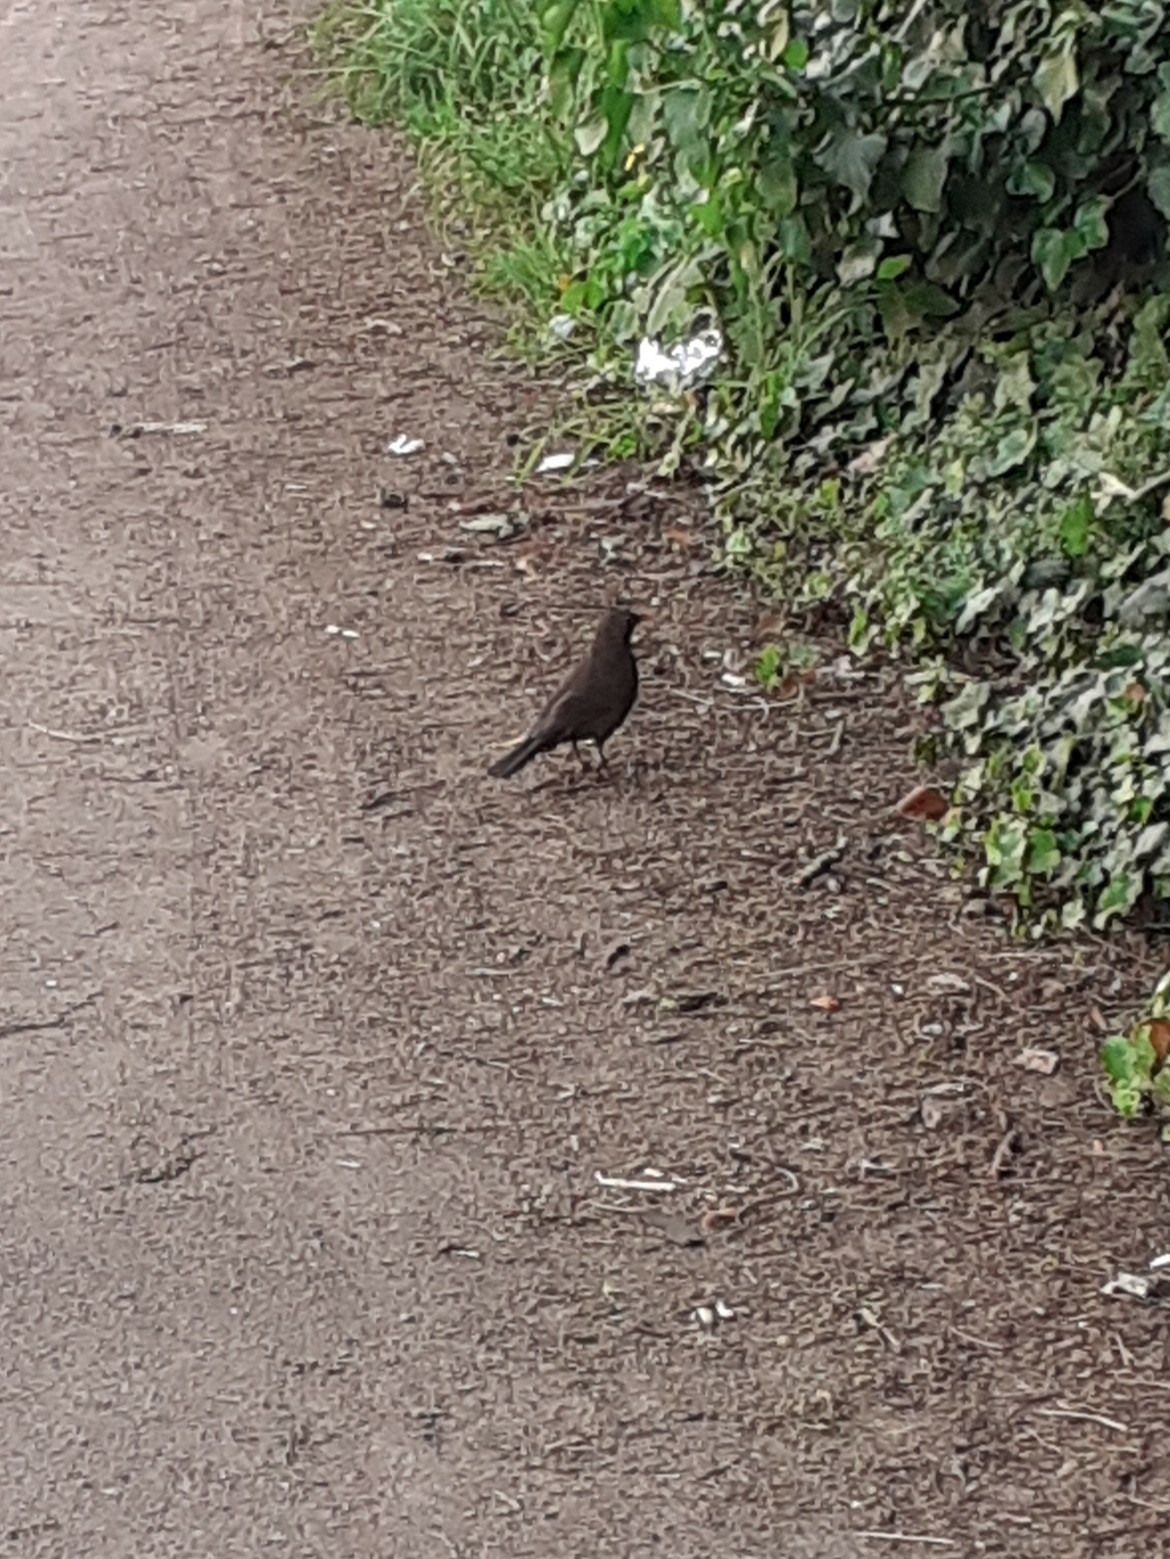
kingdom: Animalia
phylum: Chordata
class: Aves
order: Passeriformes
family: Turdidae
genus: Turdus
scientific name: Turdus merula
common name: Common blackbird
